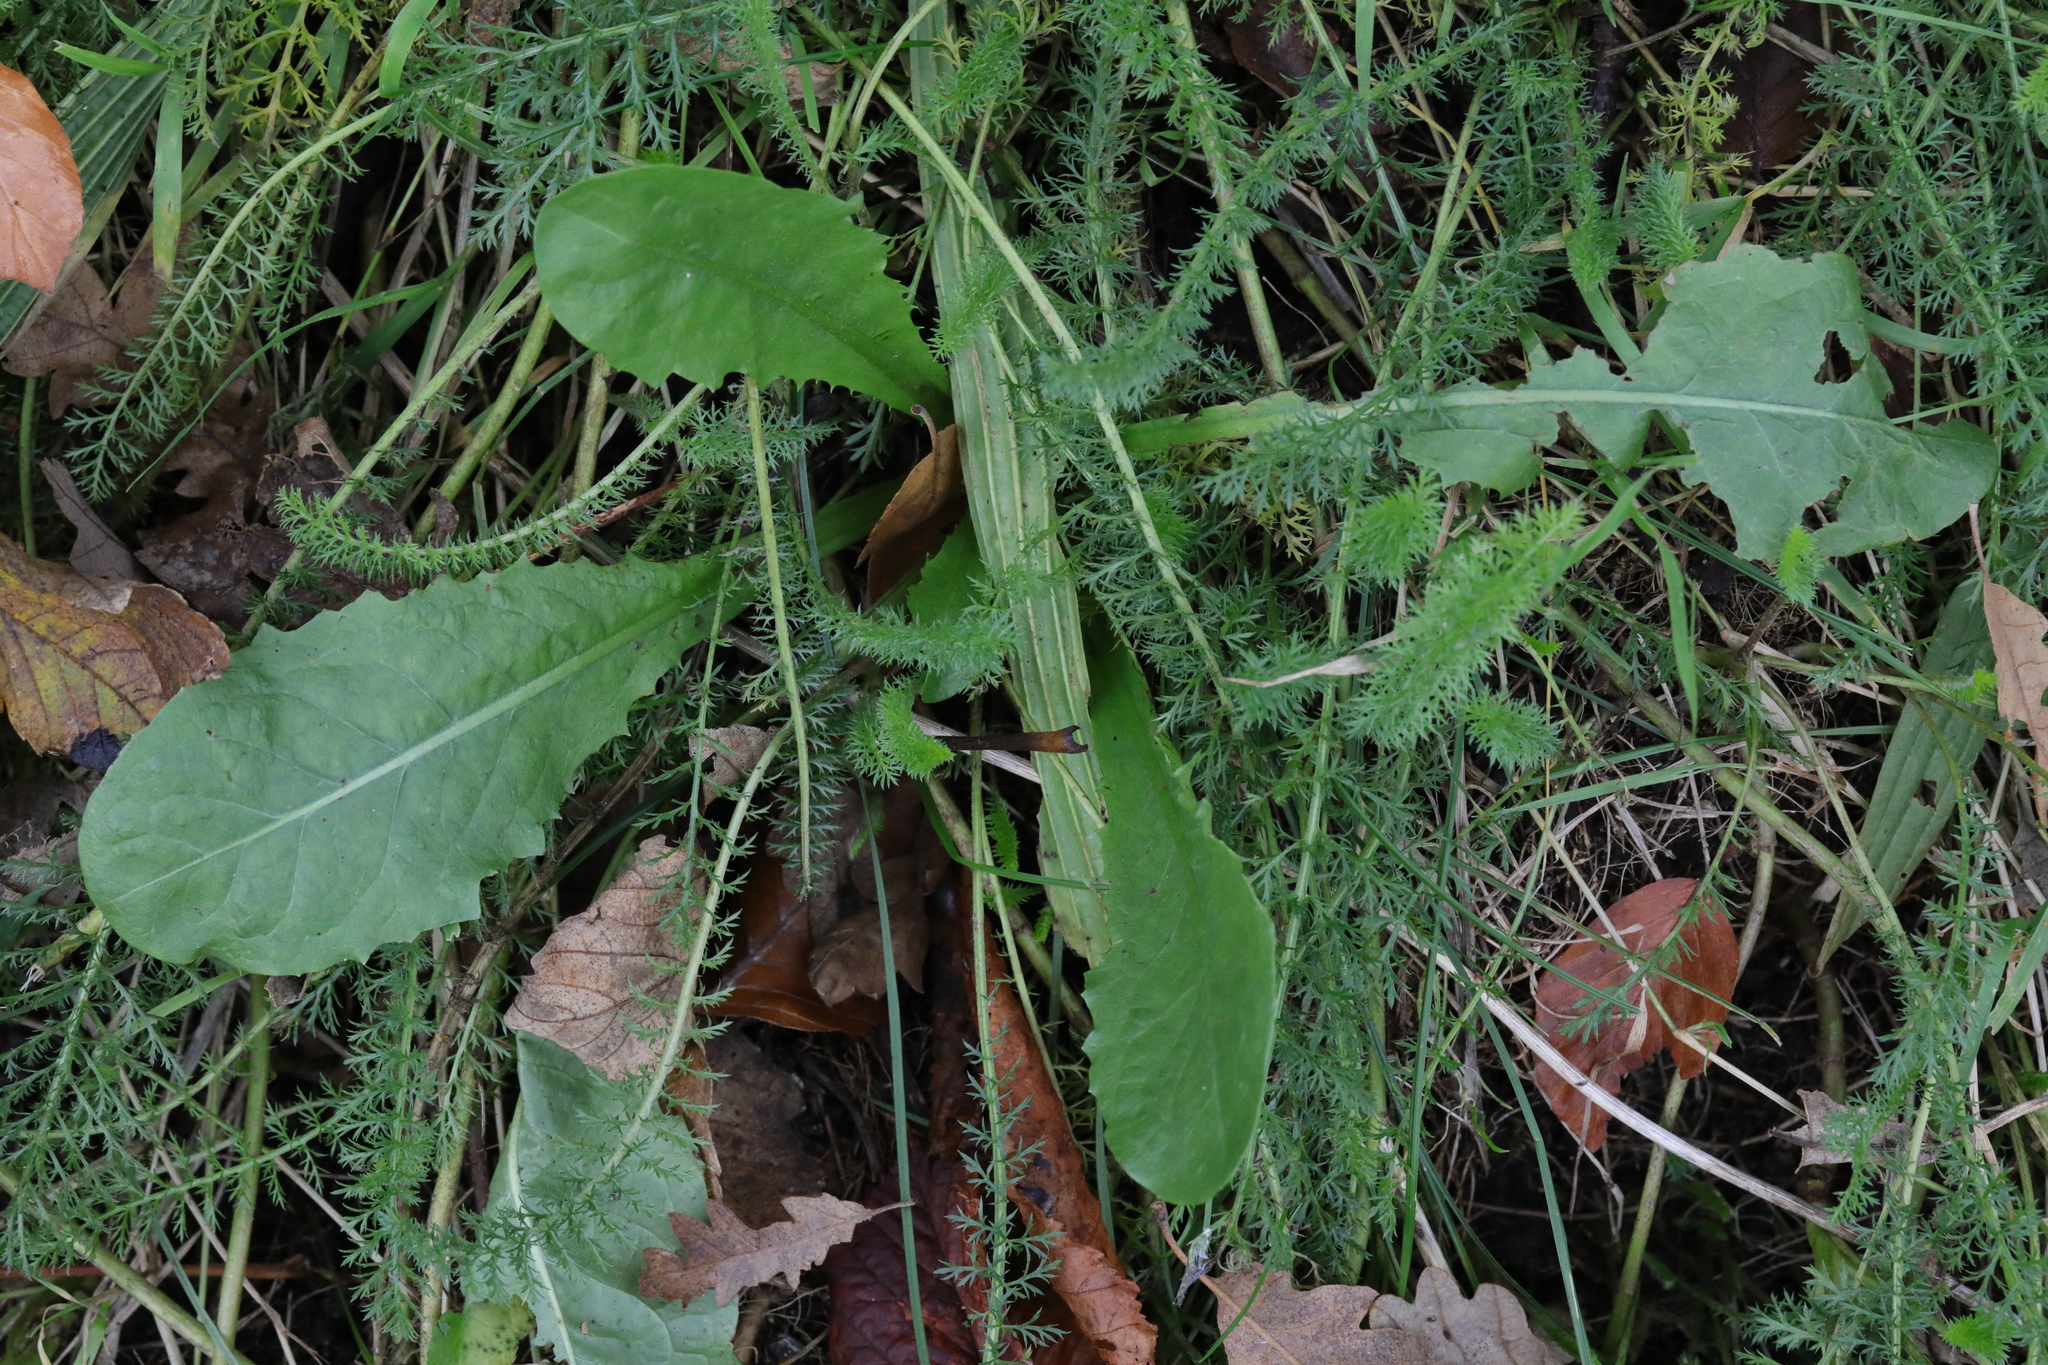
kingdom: Plantae
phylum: Tracheophyta
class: Magnoliopsida
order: Asterales
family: Asteraceae
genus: Taraxacum
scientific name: Taraxacum officinale
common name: Common dandelion
